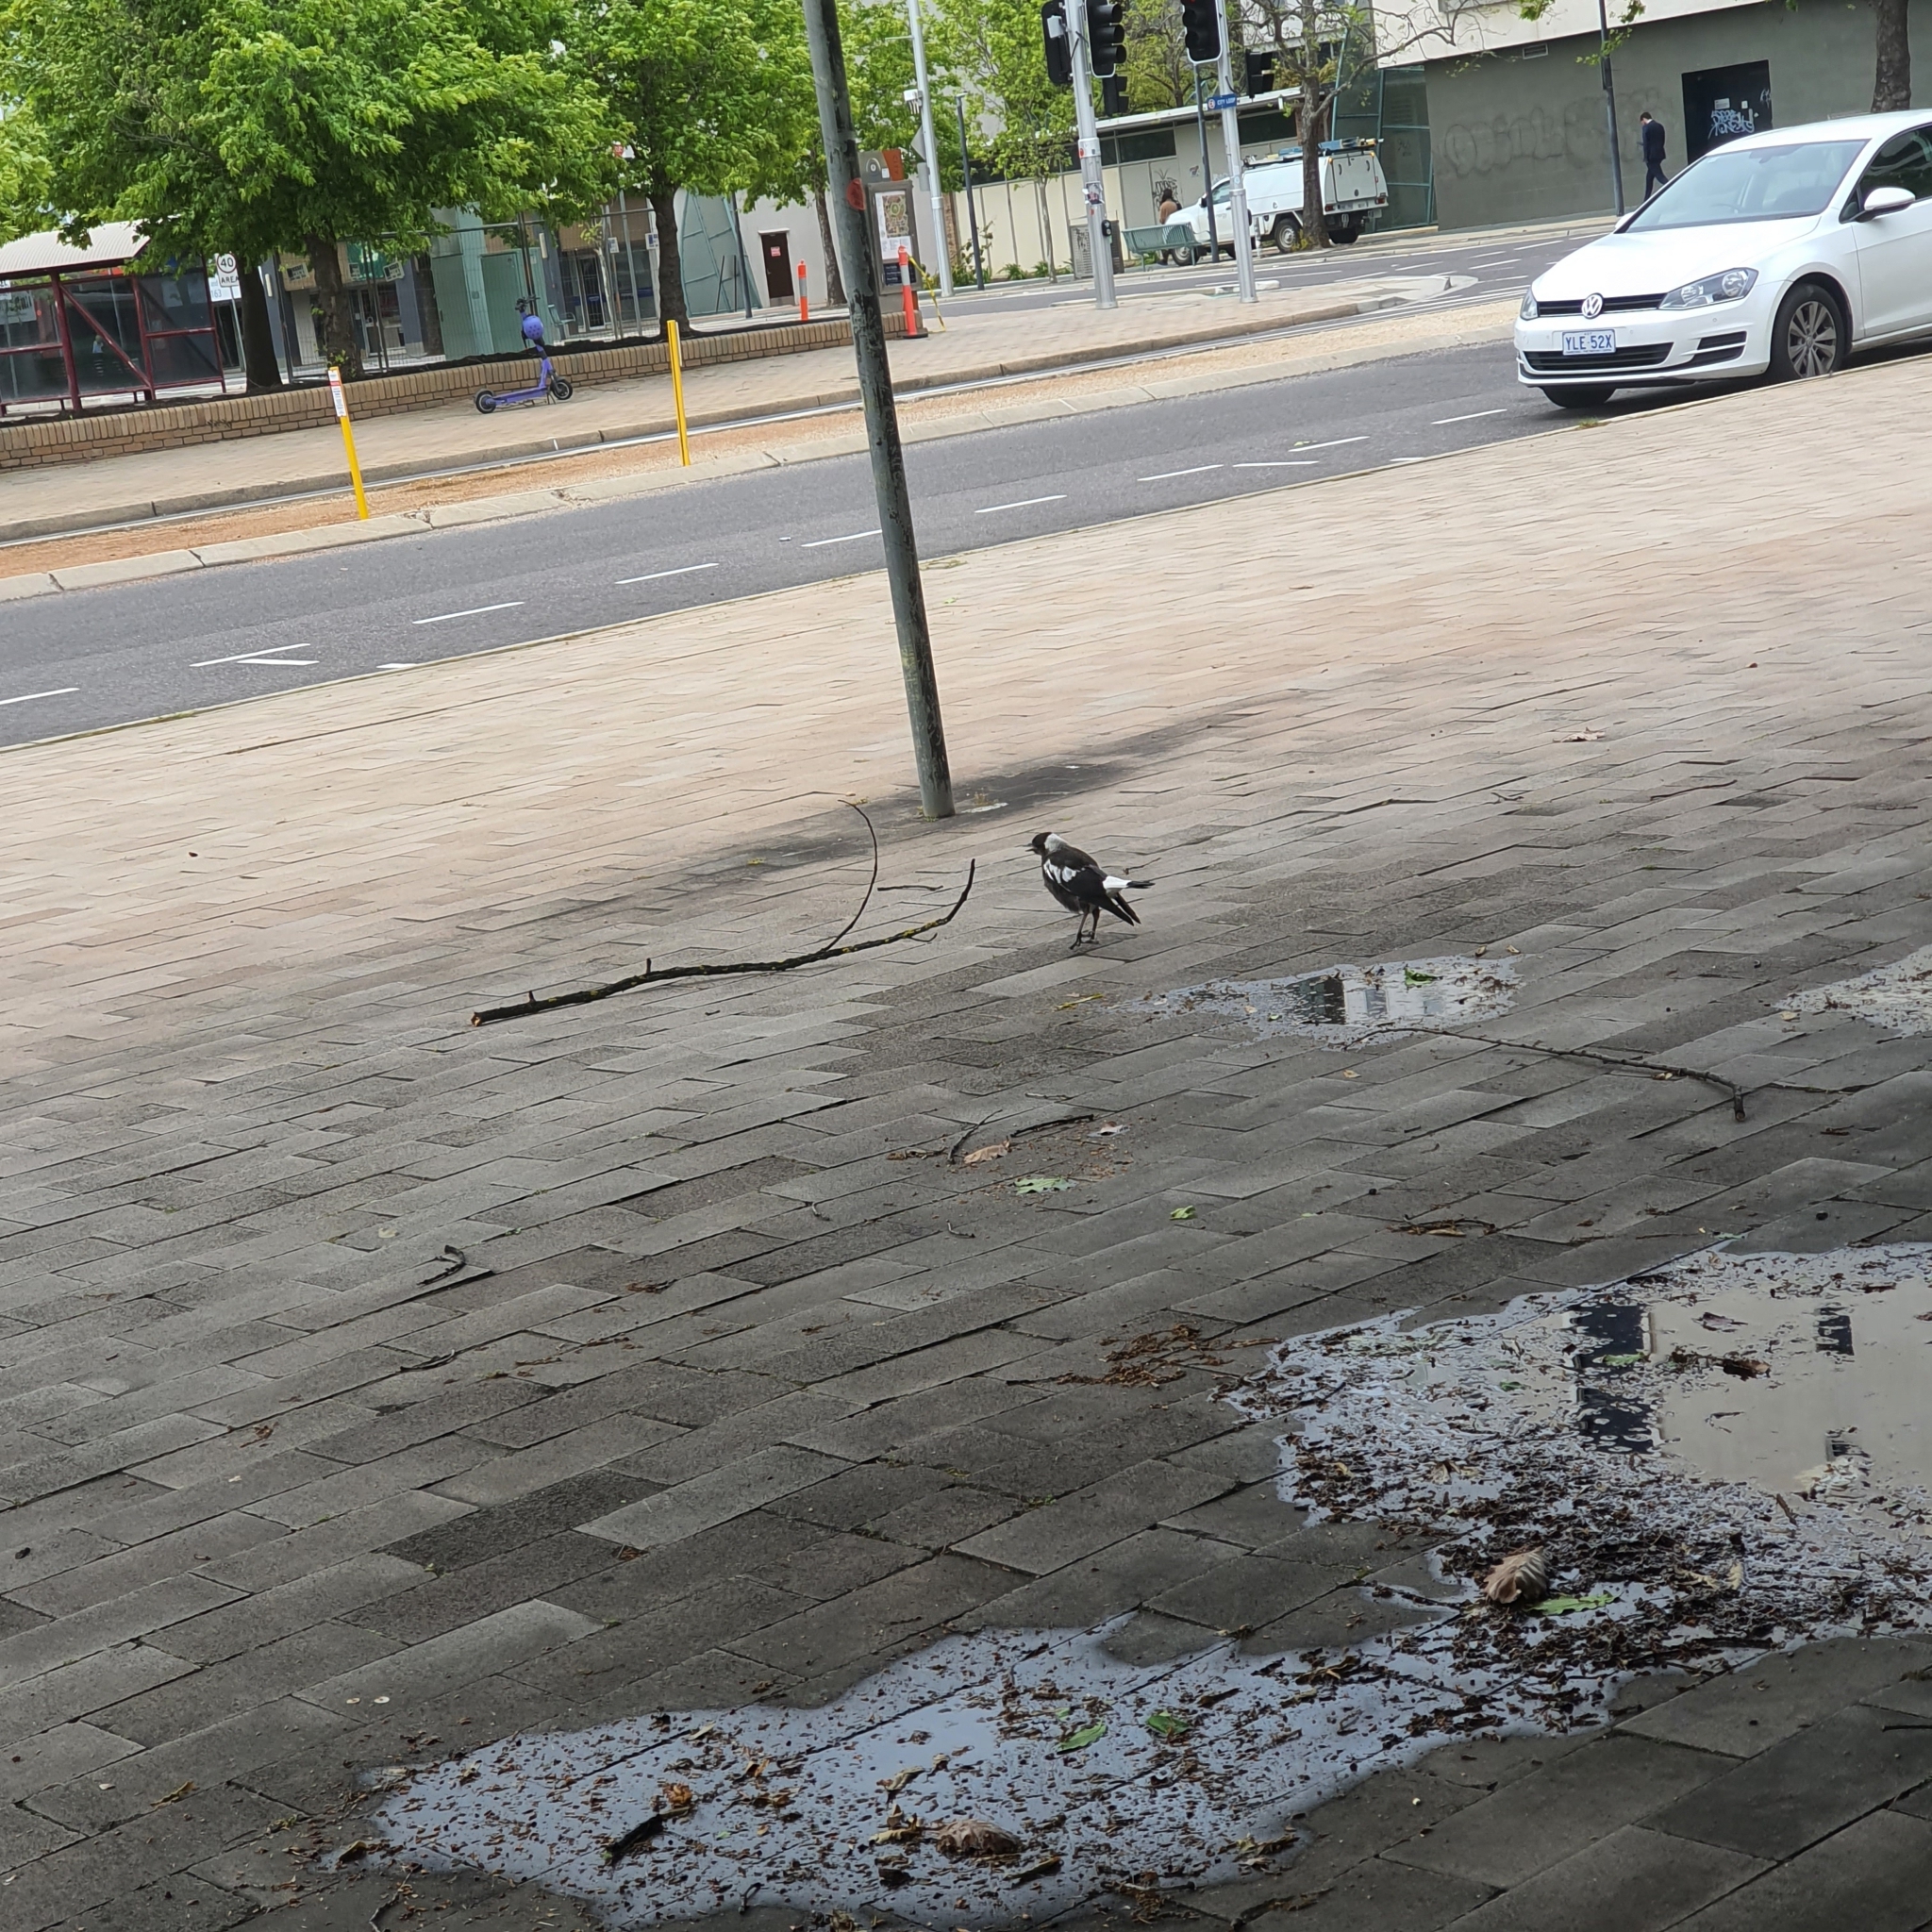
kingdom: Animalia
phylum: Chordata
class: Aves
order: Passeriformes
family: Cracticidae
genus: Gymnorhina
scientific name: Gymnorhina tibicen
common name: Australian magpie
